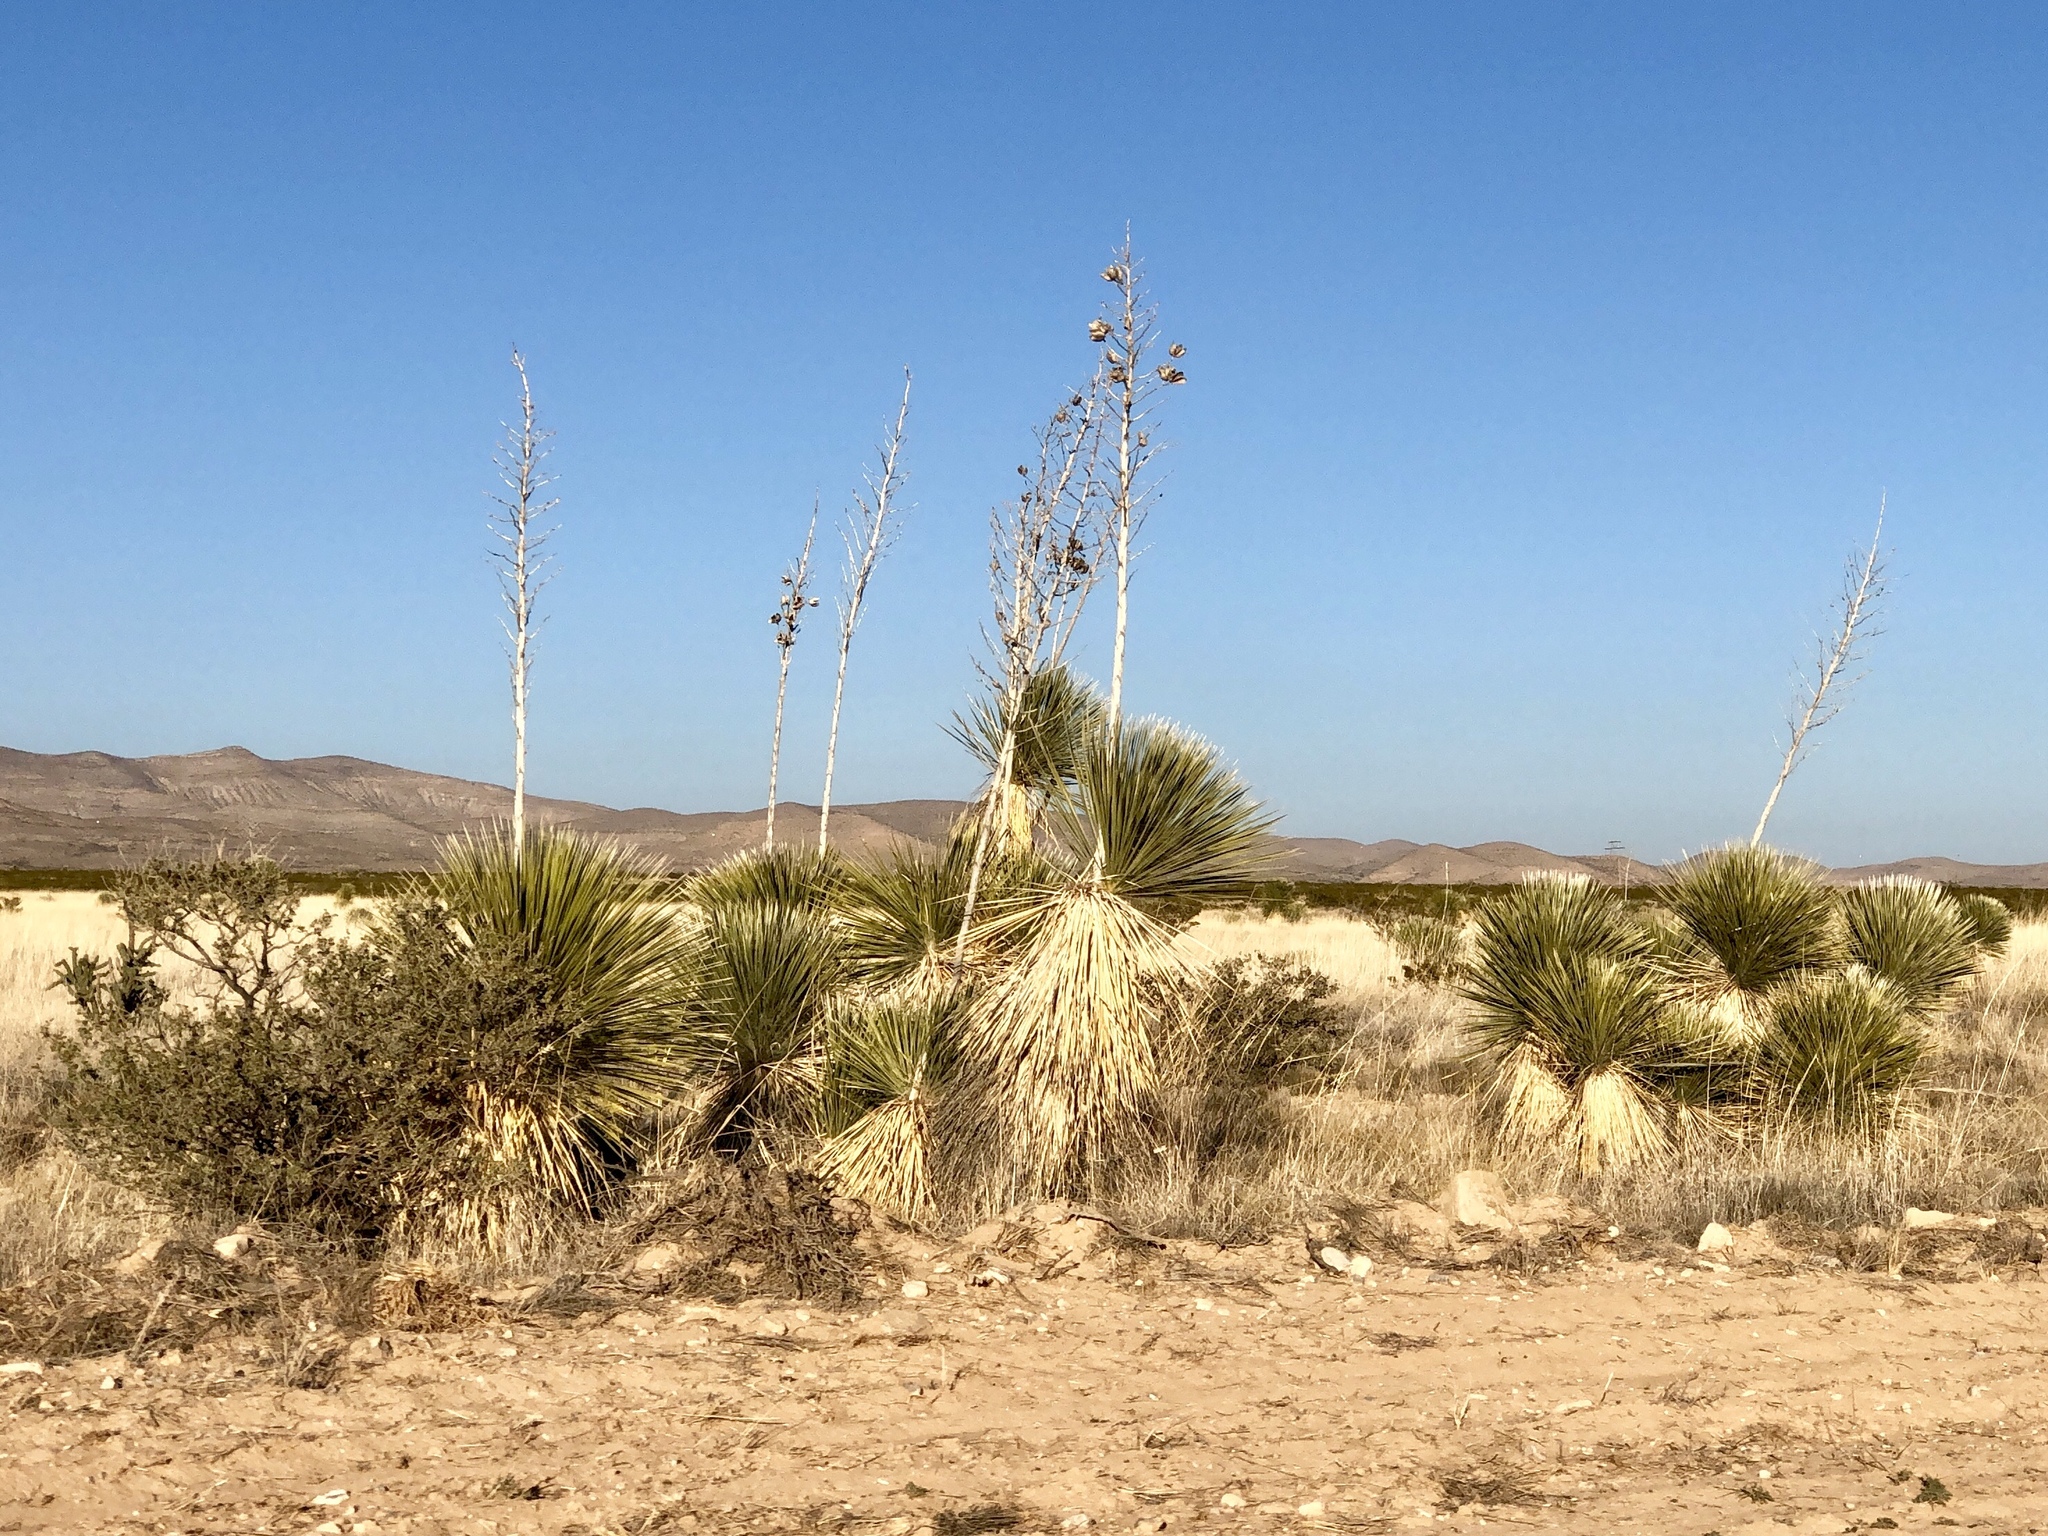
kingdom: Plantae
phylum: Tracheophyta
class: Liliopsida
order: Asparagales
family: Asparagaceae
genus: Yucca
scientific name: Yucca elata
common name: Palmella
